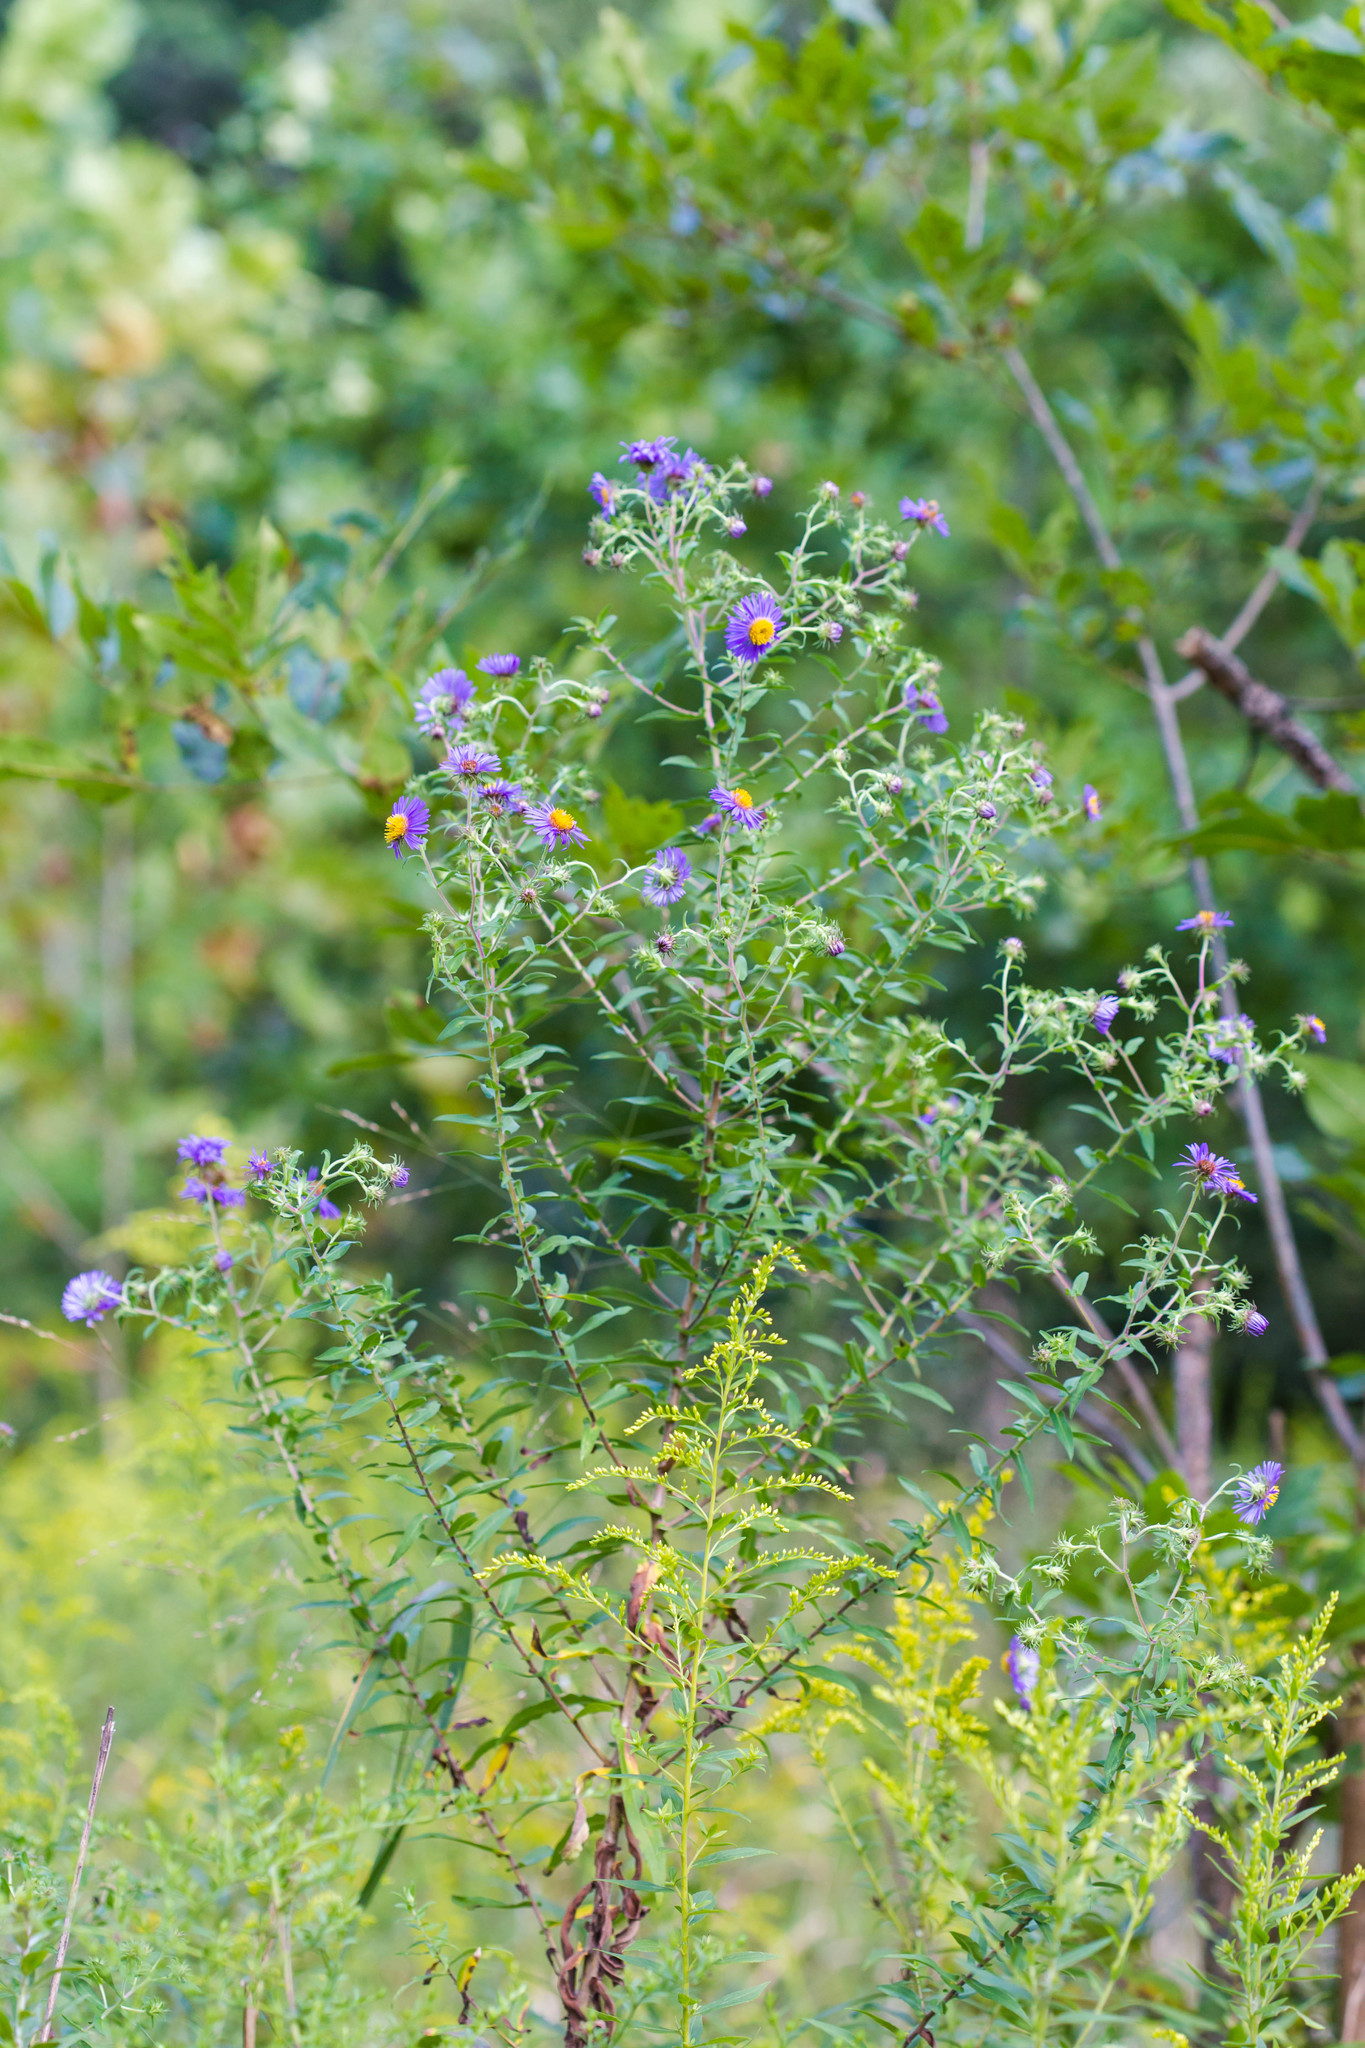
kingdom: Plantae
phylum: Tracheophyta
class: Magnoliopsida
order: Asterales
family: Asteraceae
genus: Symphyotrichum
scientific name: Symphyotrichum novae-angliae
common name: Michaelmas daisy
